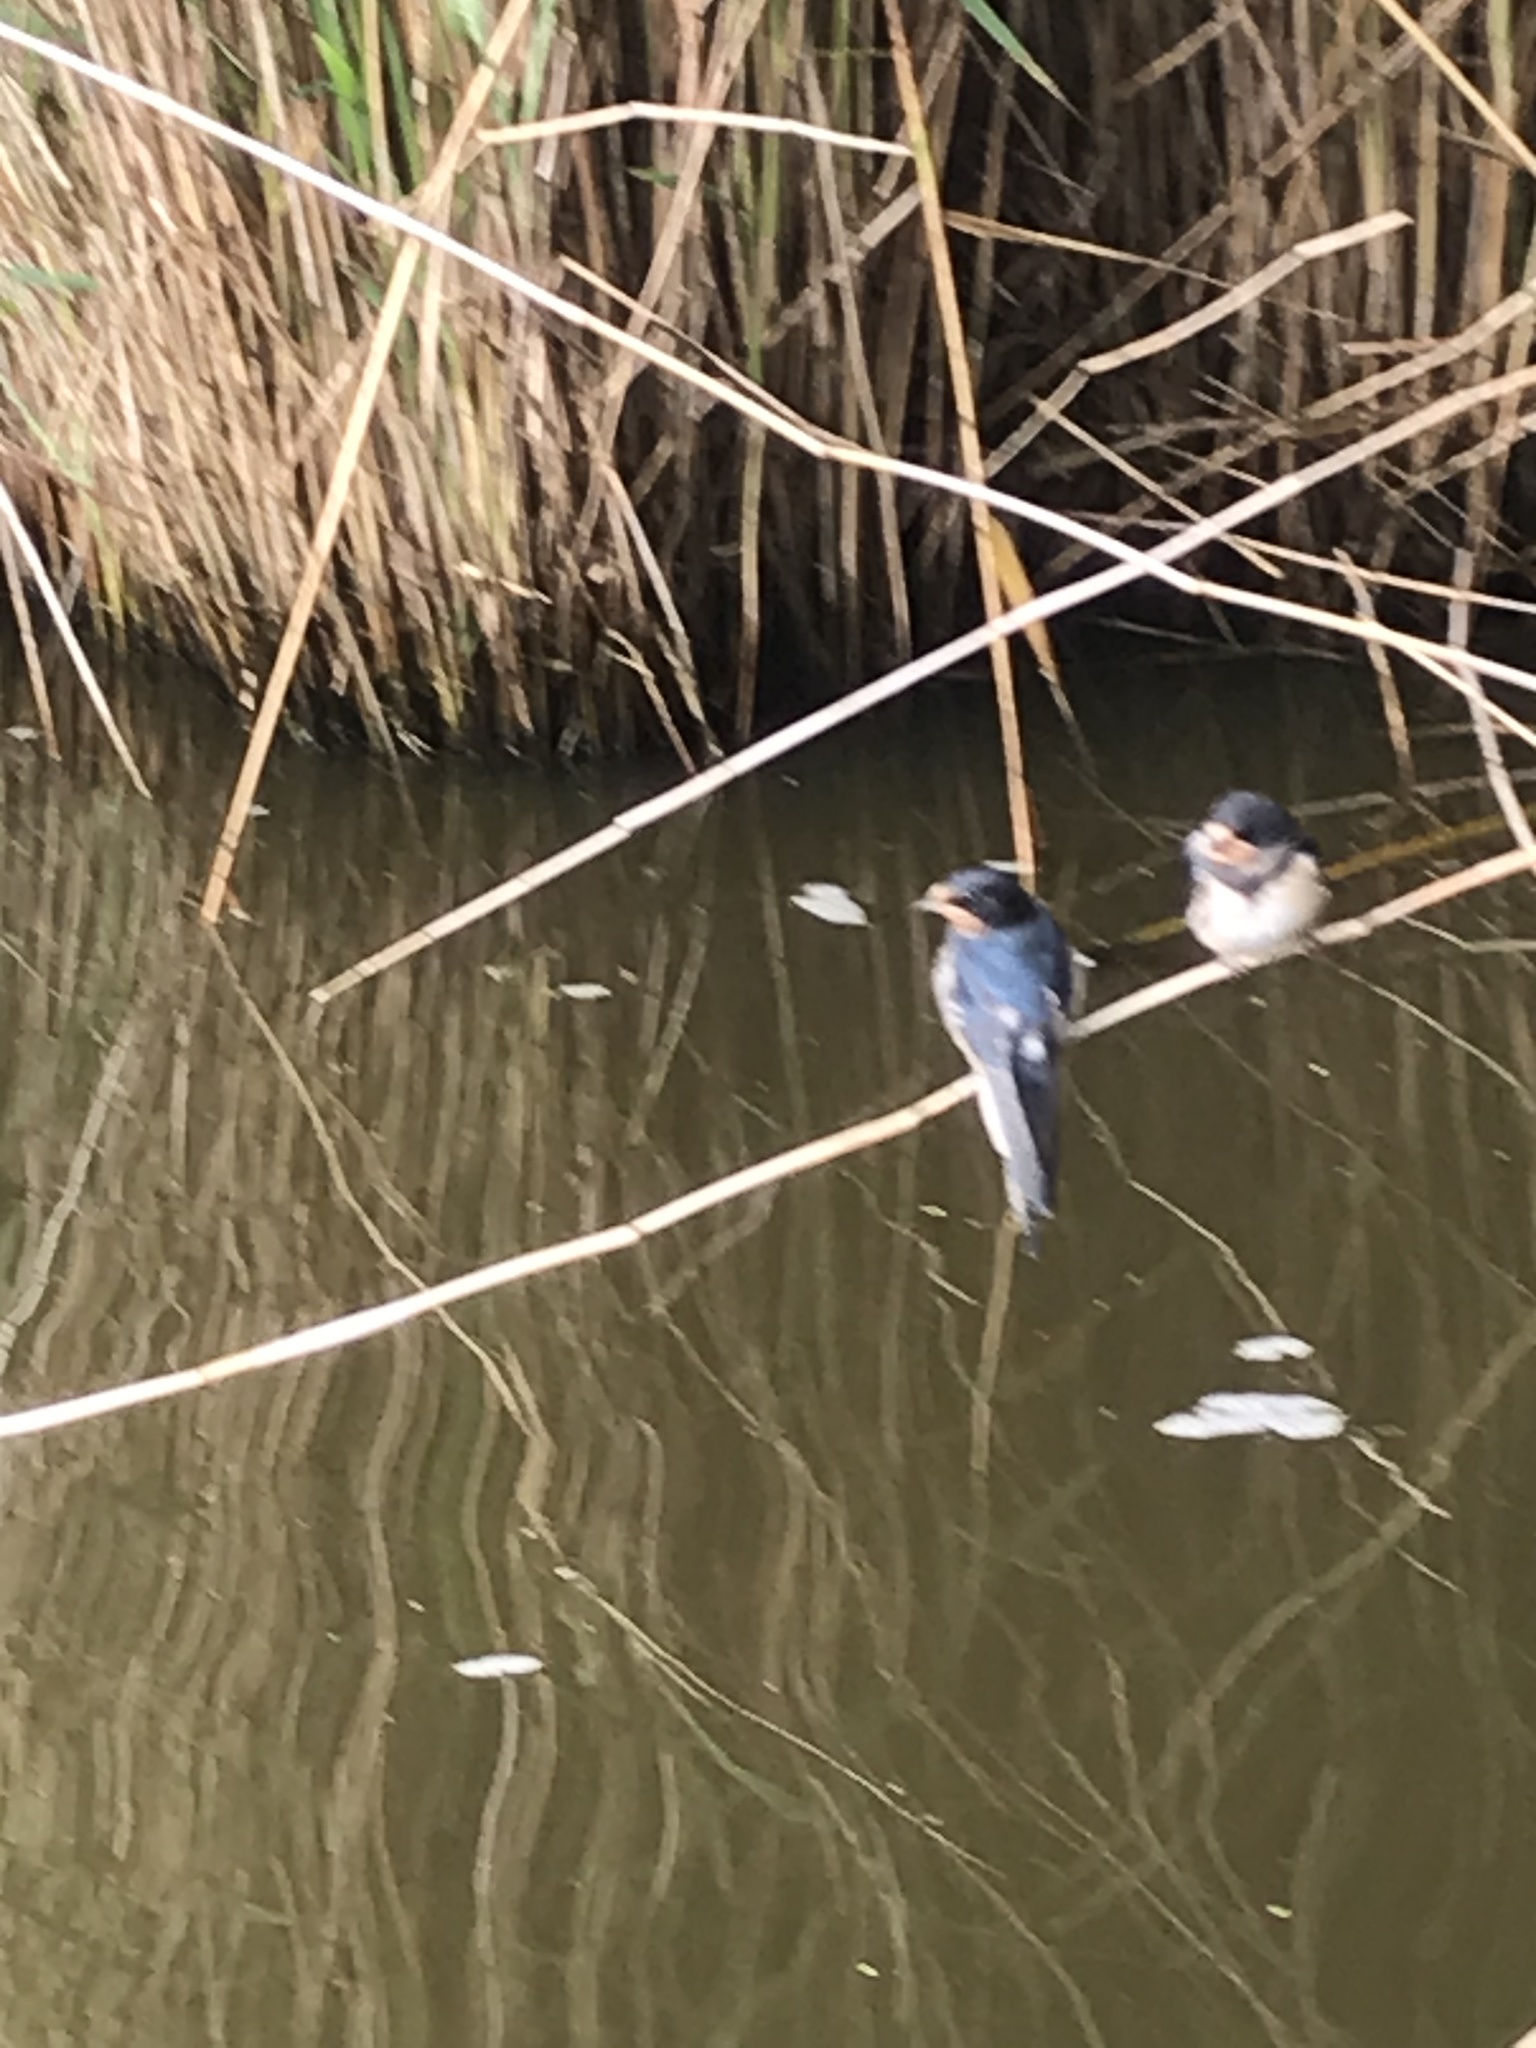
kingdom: Animalia
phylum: Chordata
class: Aves
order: Passeriformes
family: Hirundinidae
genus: Hirundo
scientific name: Hirundo rustica
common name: Barn swallow
